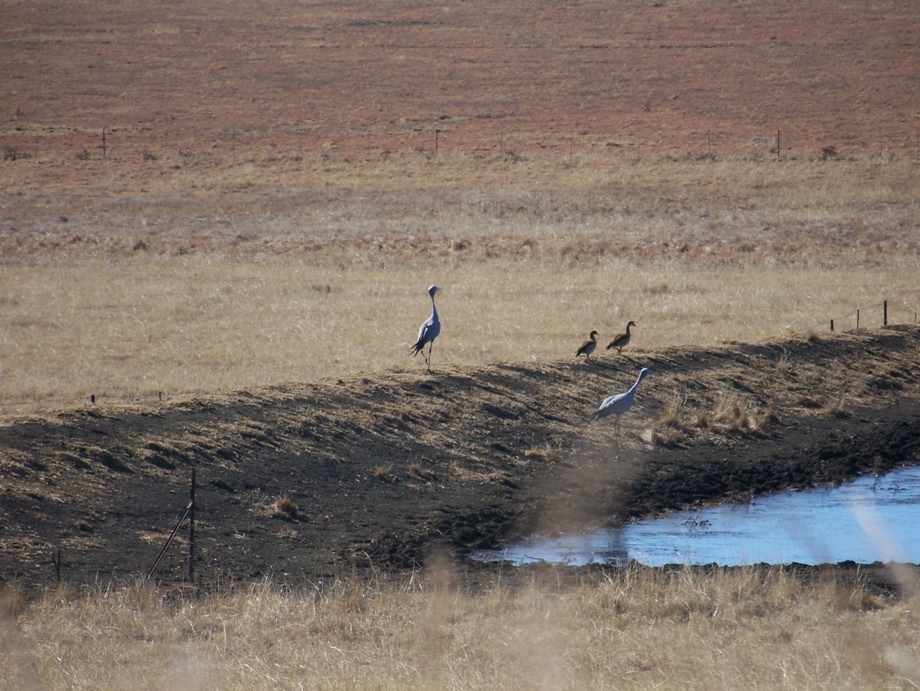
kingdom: Animalia
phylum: Chordata
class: Aves
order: Gruiformes
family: Gruidae
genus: Anthropoides
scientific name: Anthropoides paradiseus
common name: Blue crane
